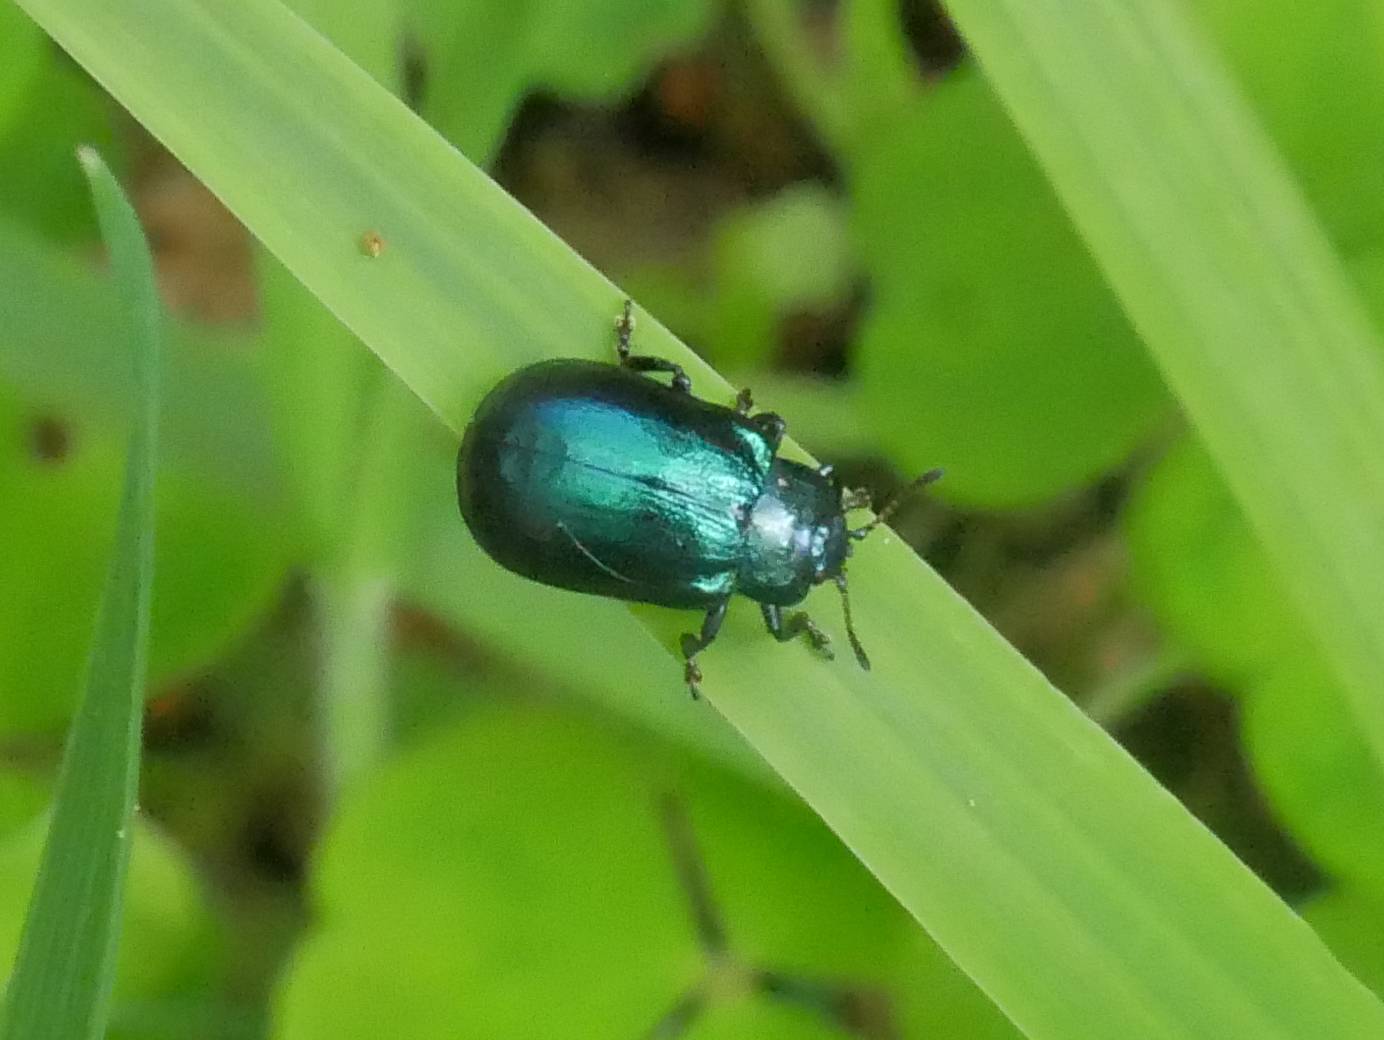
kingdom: Animalia
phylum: Arthropoda
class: Insecta
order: Coleoptera
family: Chrysomelidae
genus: Plagiosterna
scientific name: Plagiosterna aenea
